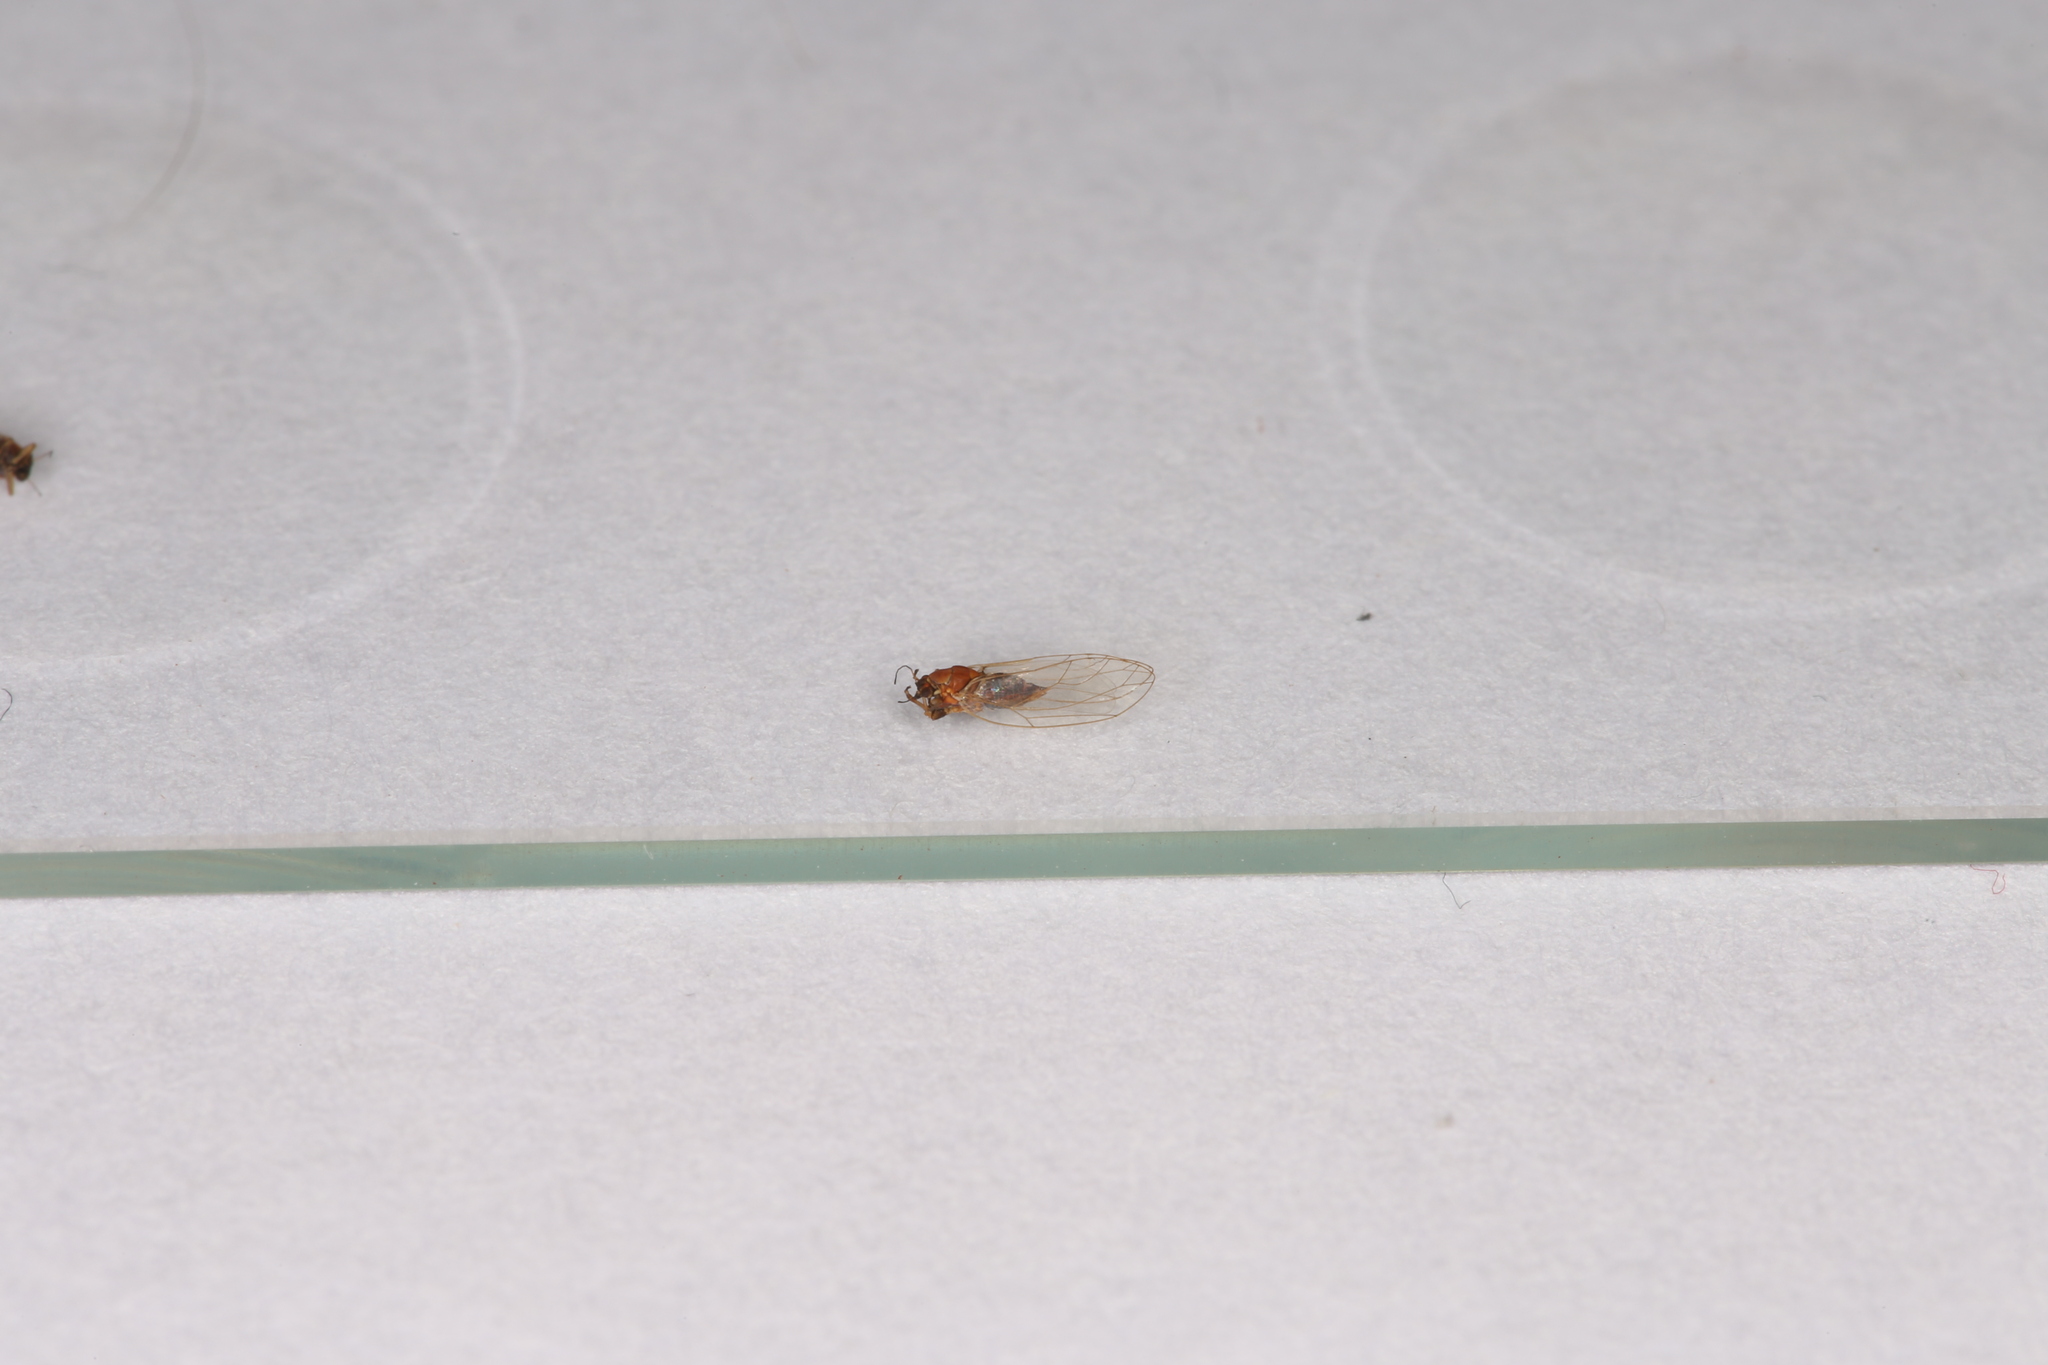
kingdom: Animalia
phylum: Arthropoda
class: Insecta
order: Hemiptera
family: Triozidae
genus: Trioza
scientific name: Trioza remota
